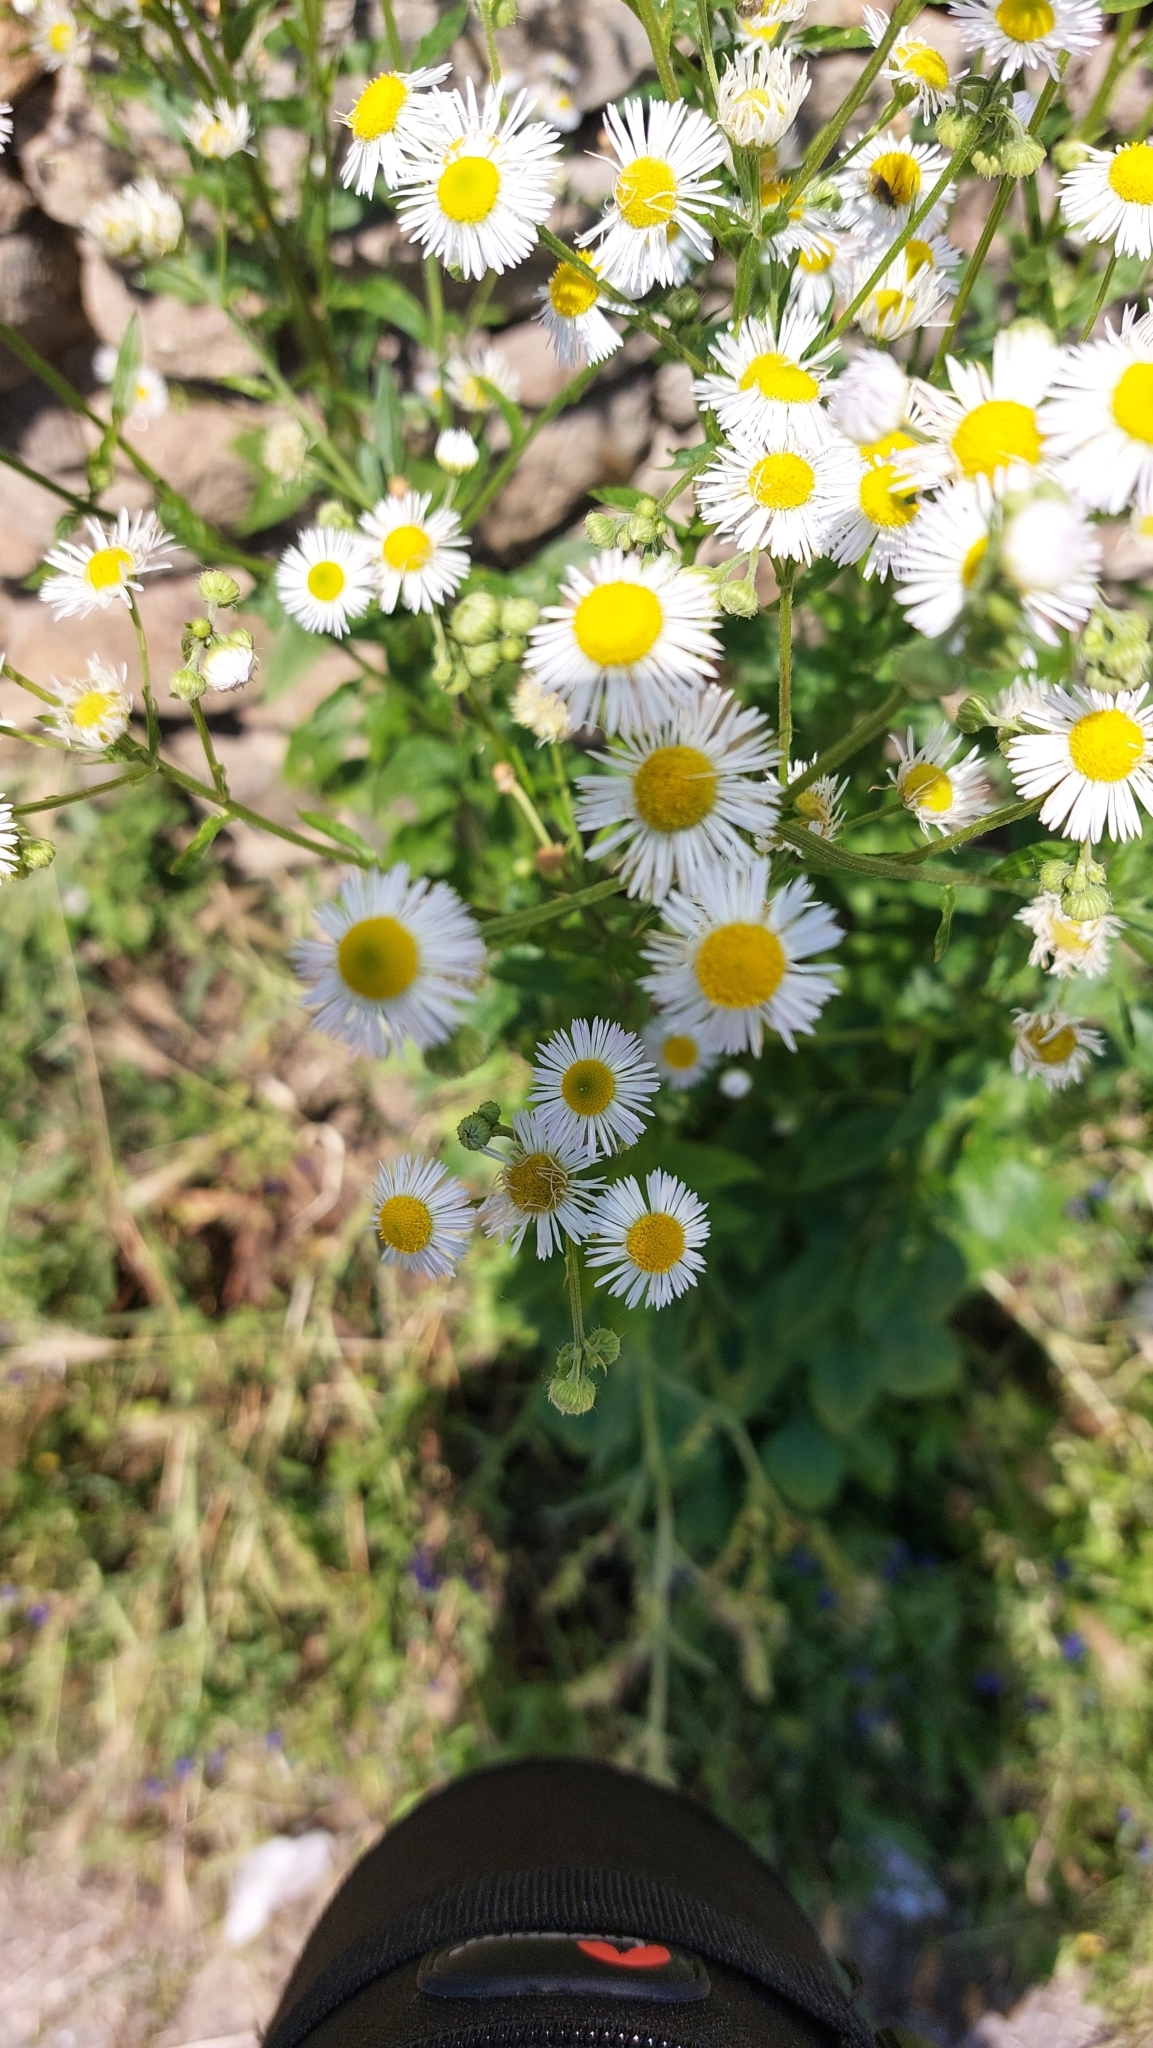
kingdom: Plantae
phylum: Tracheophyta
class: Magnoliopsida
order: Asterales
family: Asteraceae
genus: Erigeron
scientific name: Erigeron annuus
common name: Tall fleabane
